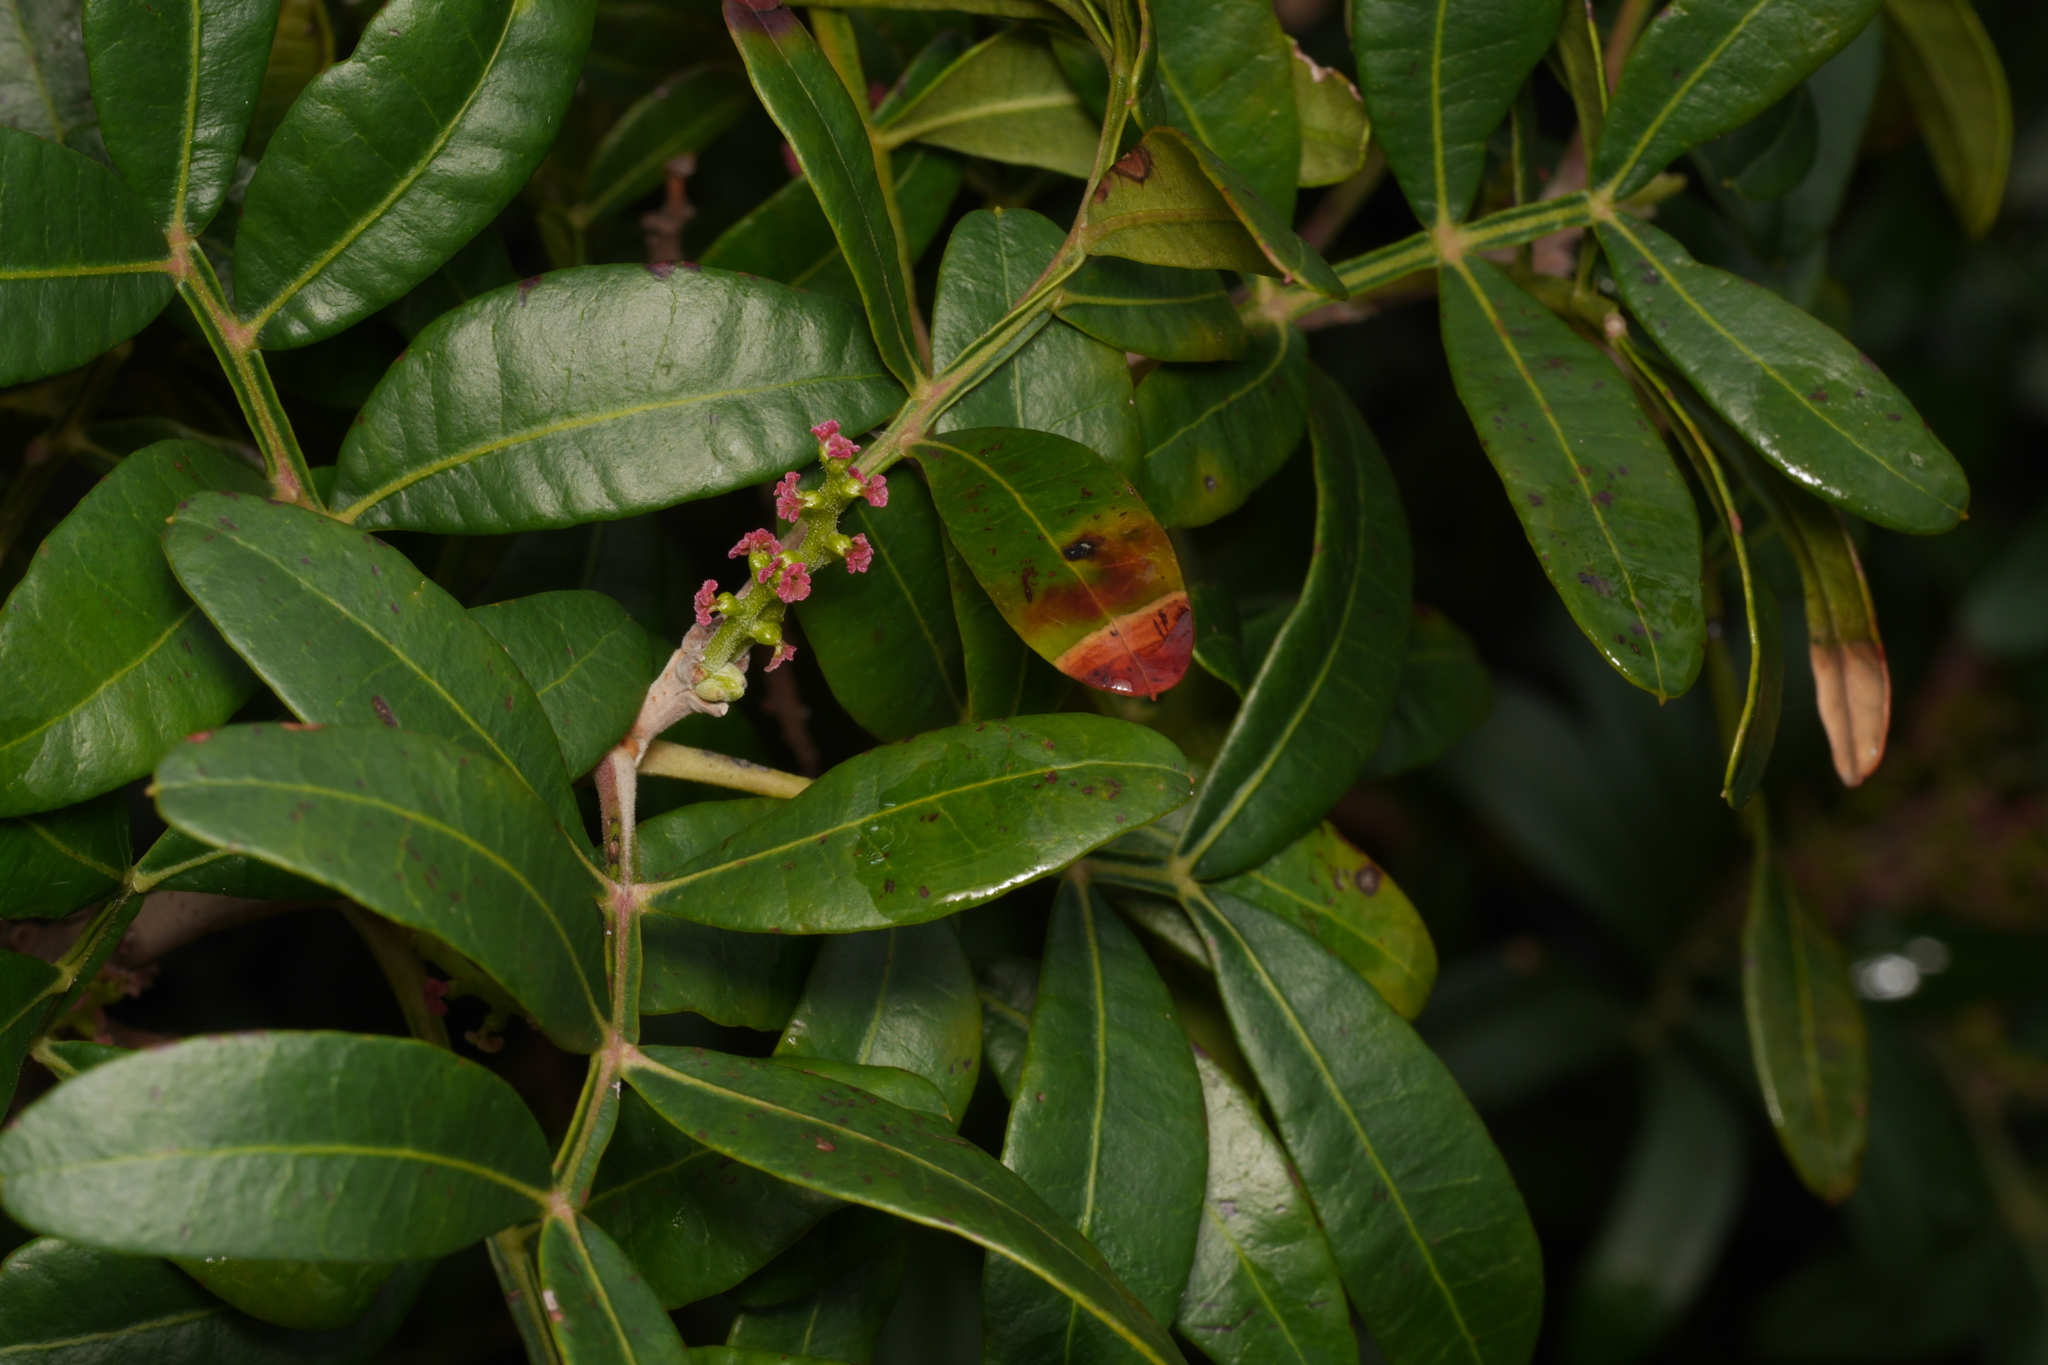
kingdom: Plantae
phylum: Tracheophyta
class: Magnoliopsida
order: Sapindales
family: Anacardiaceae
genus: Pistacia
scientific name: Pistacia lentiscus
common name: Lentisk
